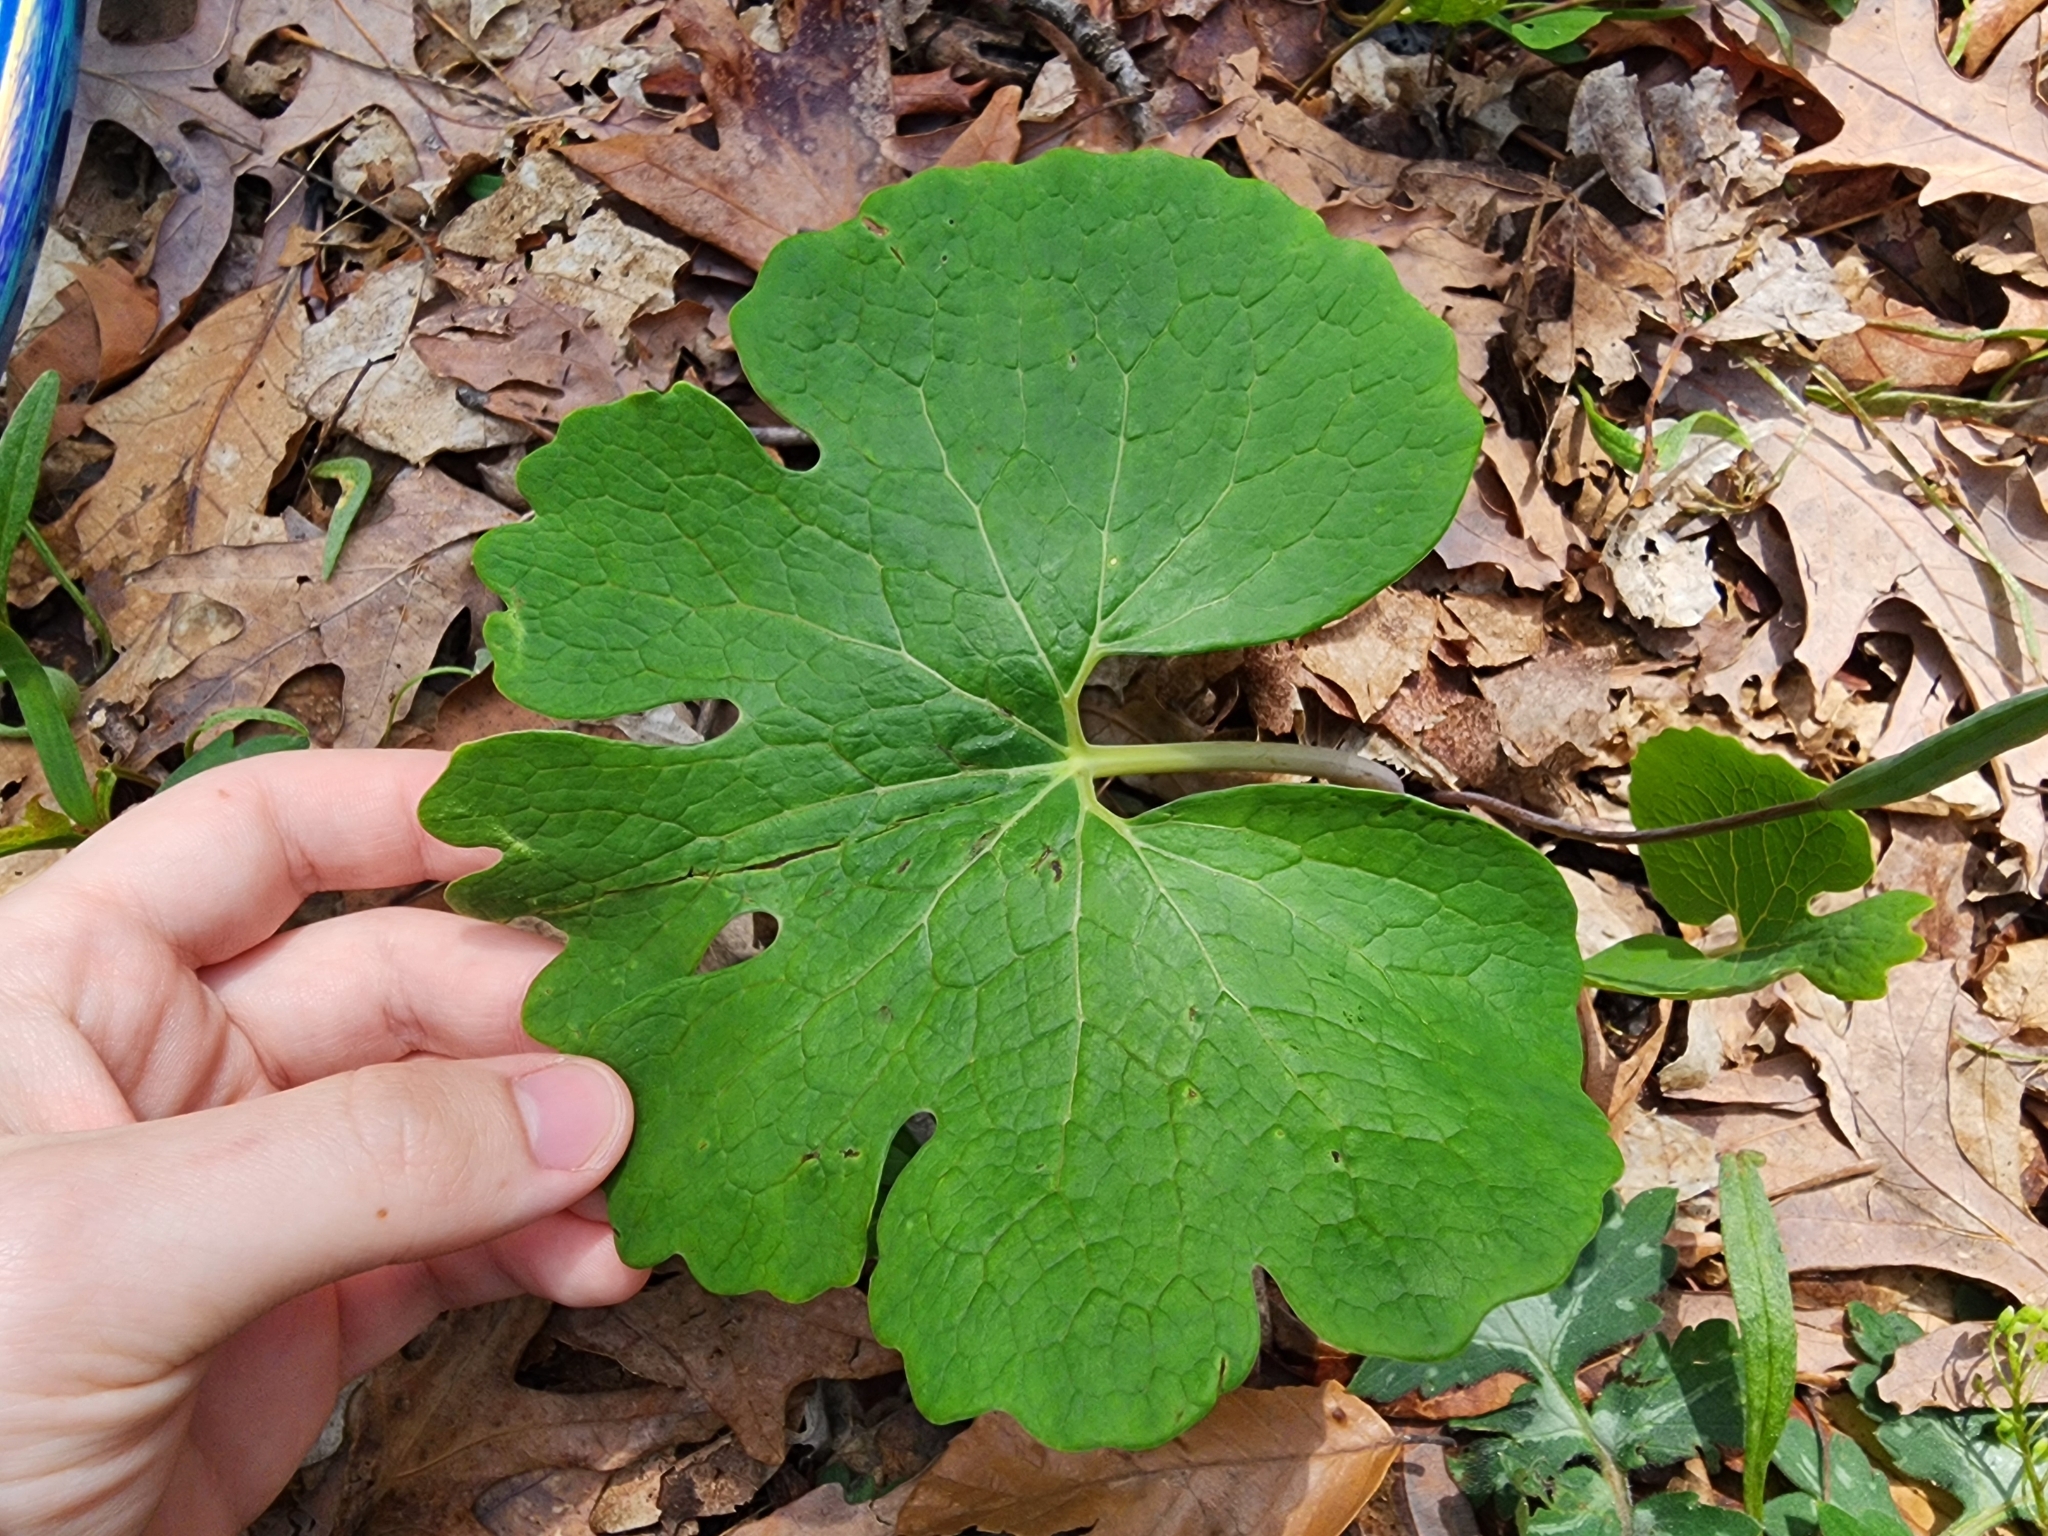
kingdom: Plantae
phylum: Tracheophyta
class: Magnoliopsida
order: Ranunculales
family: Papaveraceae
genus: Sanguinaria
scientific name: Sanguinaria canadensis
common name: Bloodroot
